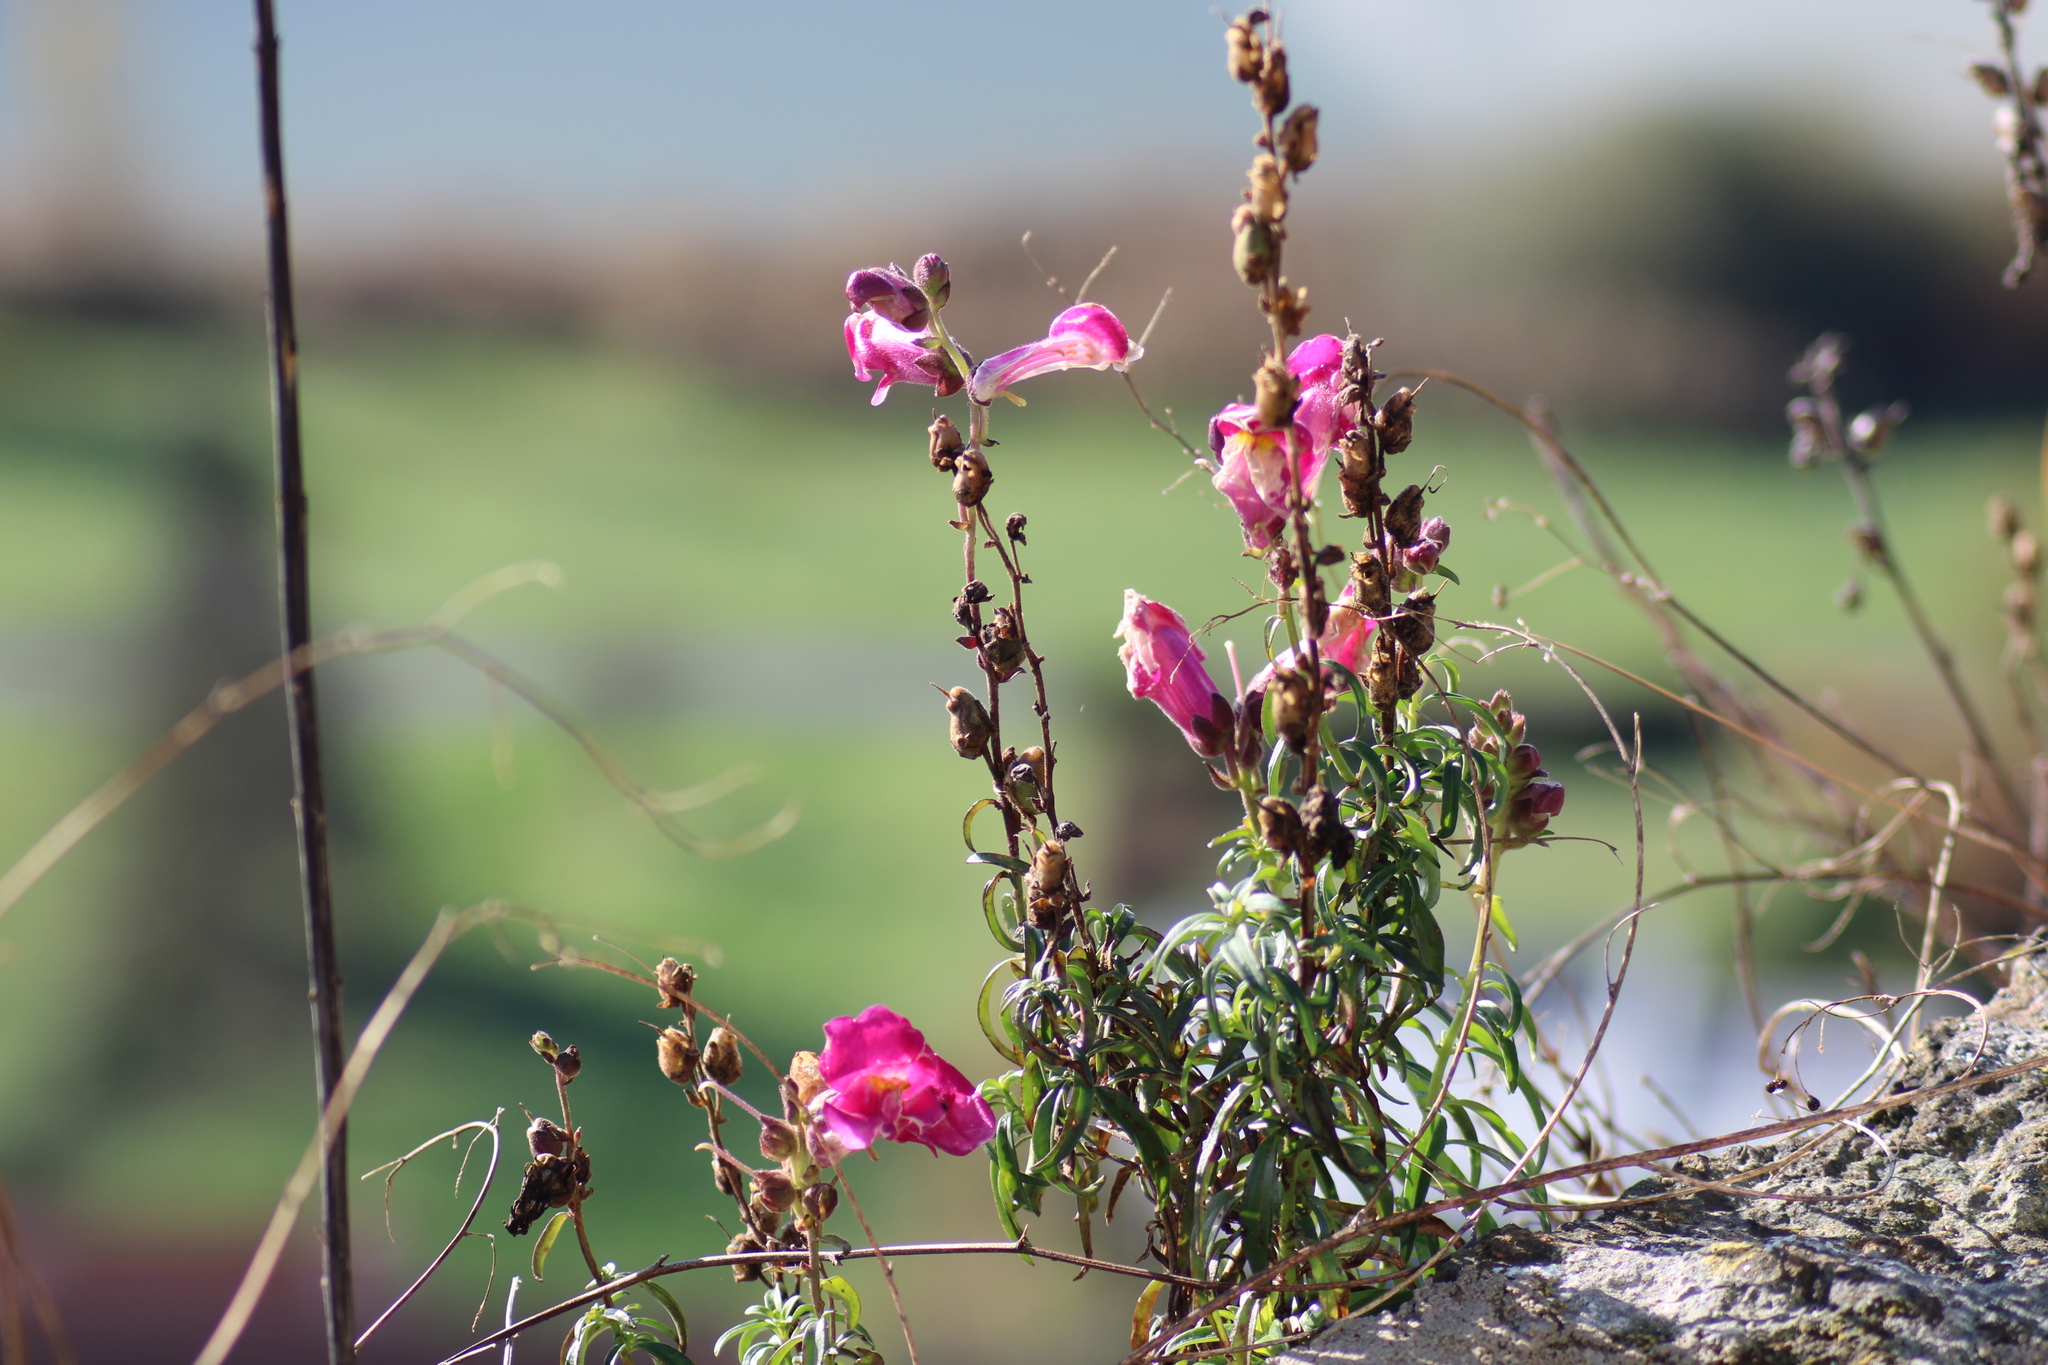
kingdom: Plantae
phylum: Tracheophyta
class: Magnoliopsida
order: Lamiales
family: Plantaginaceae
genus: Antirrhinum
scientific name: Antirrhinum majus
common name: Snapdragon
